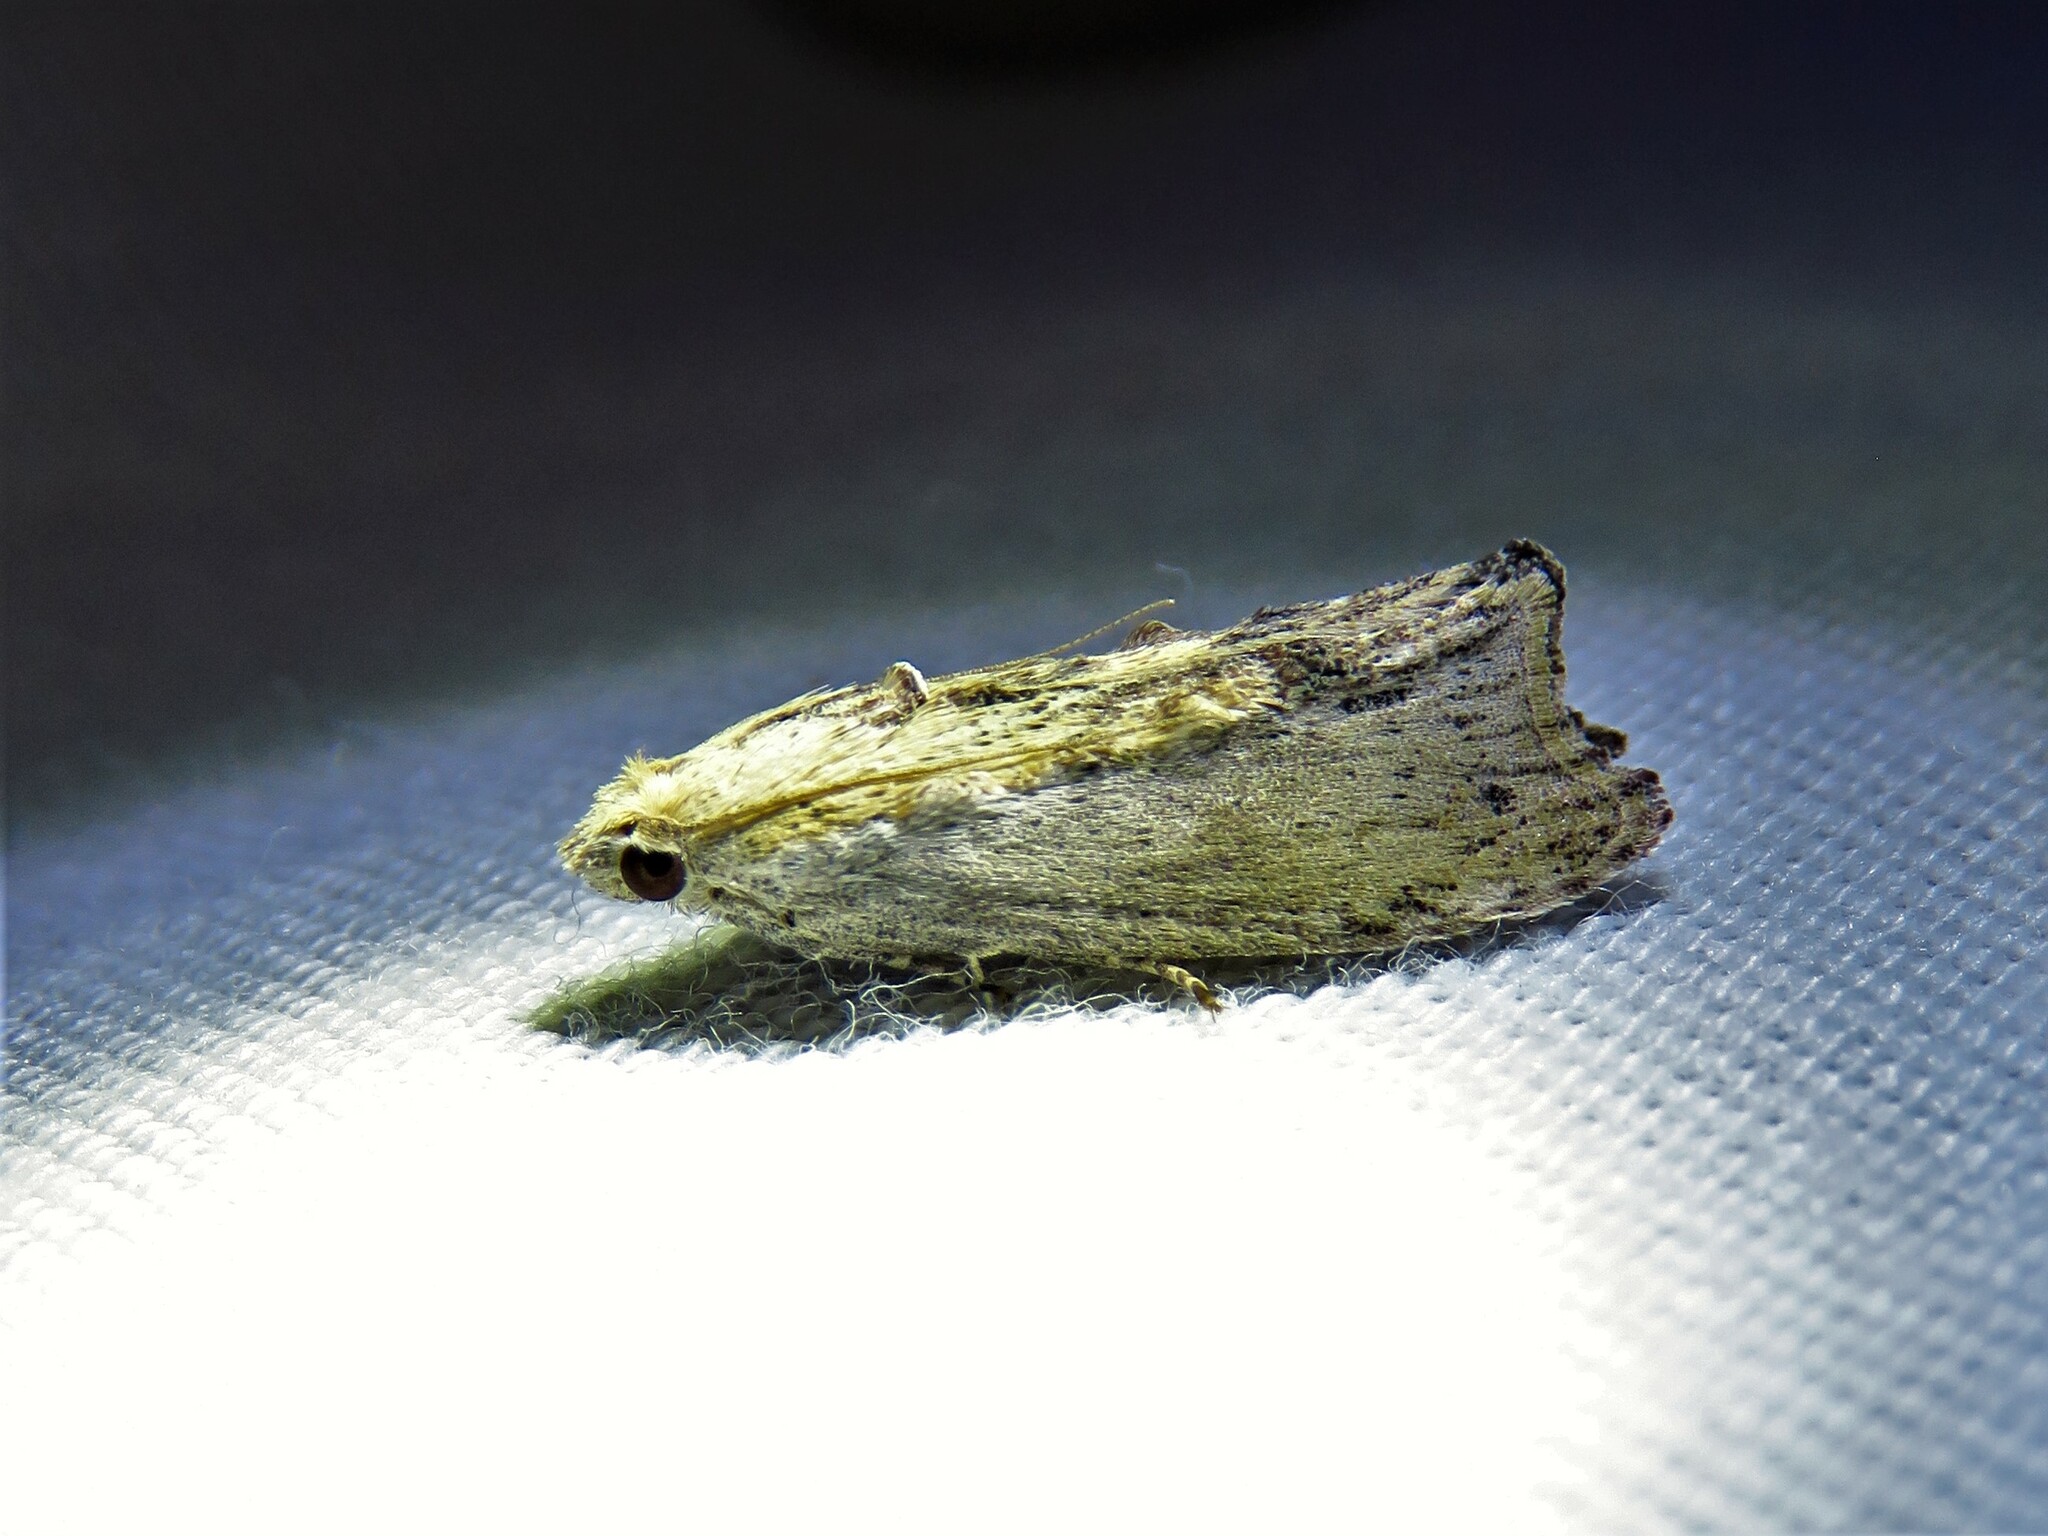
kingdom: Animalia
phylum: Arthropoda
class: Insecta
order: Lepidoptera
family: Pyralidae
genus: Galleria
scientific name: Galleria mellonella
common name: Greater wax moth
